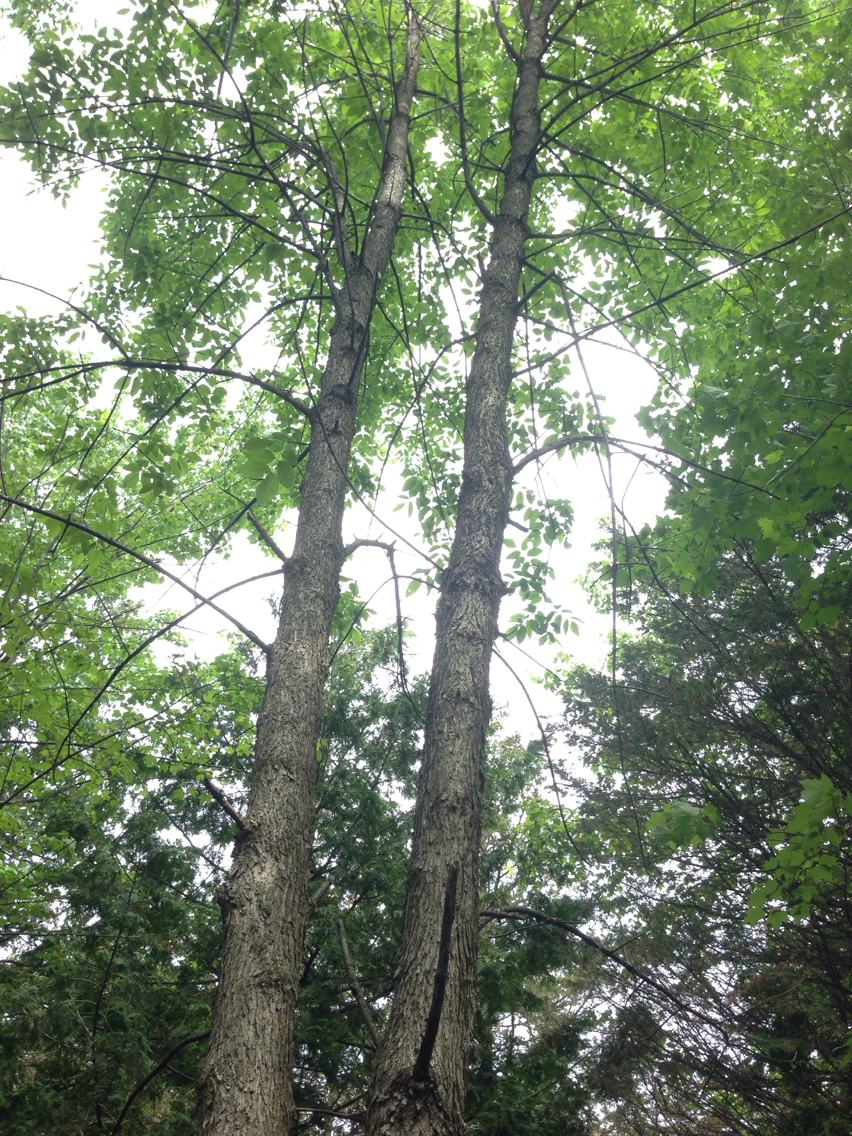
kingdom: Plantae
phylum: Tracheophyta
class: Magnoliopsida
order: Lamiales
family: Oleaceae
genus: Fraxinus
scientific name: Fraxinus pennsylvanica
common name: Green ash
